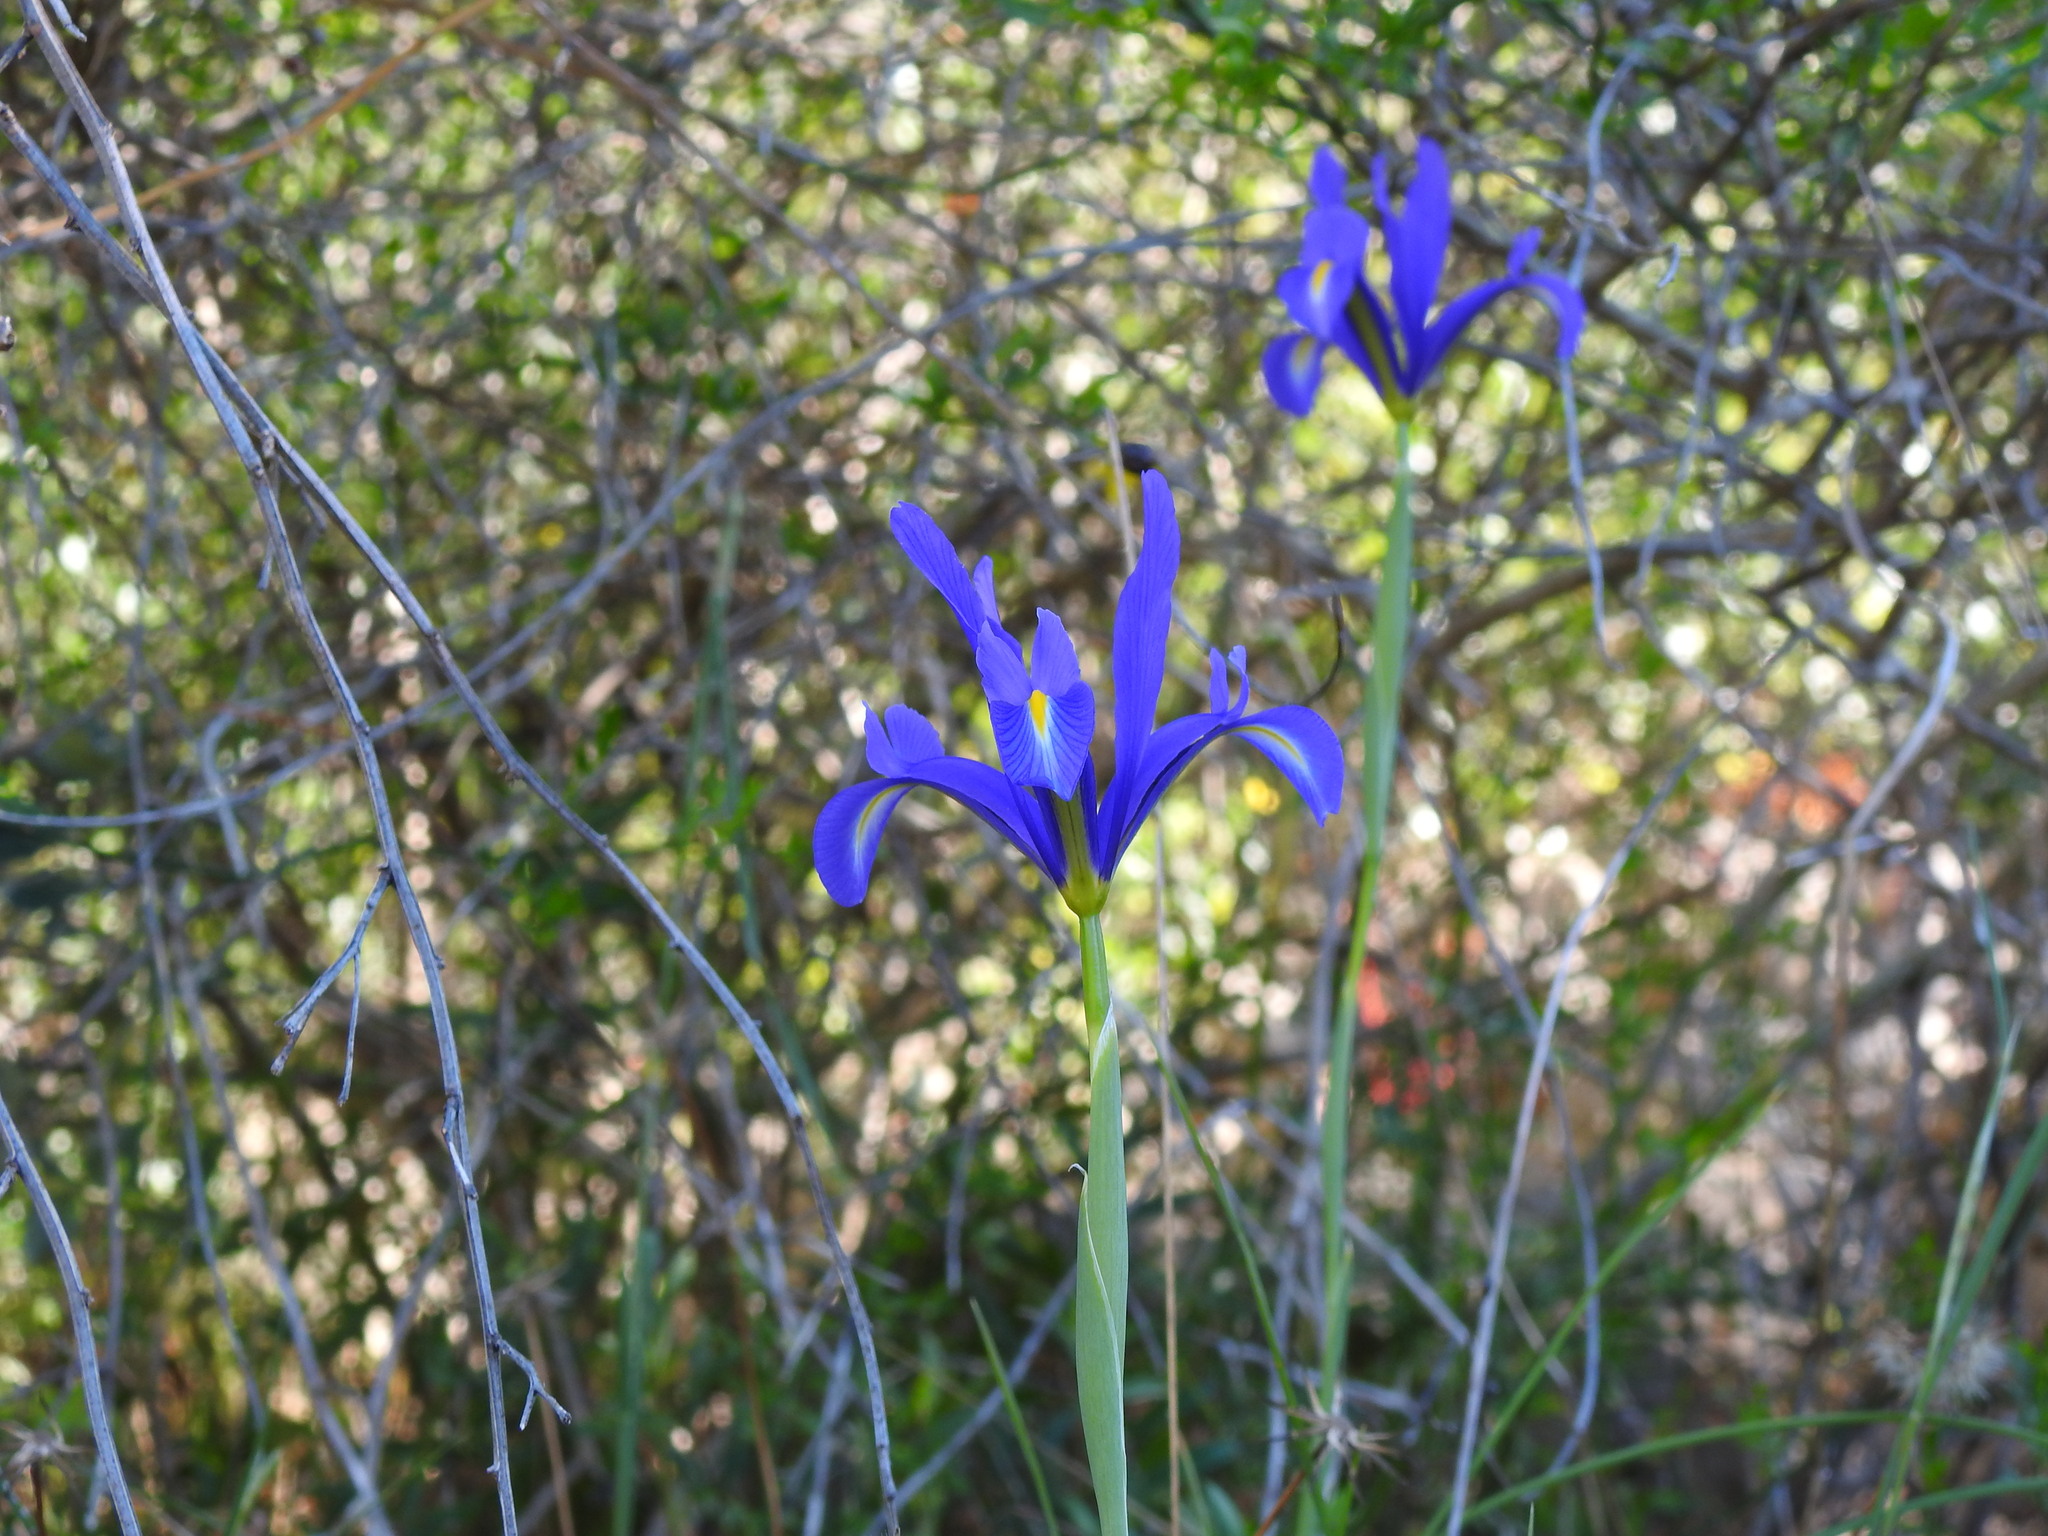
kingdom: Plantae
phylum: Tracheophyta
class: Liliopsida
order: Asparagales
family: Iridaceae
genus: Iris
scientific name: Iris xiphium
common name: Spanish iris
